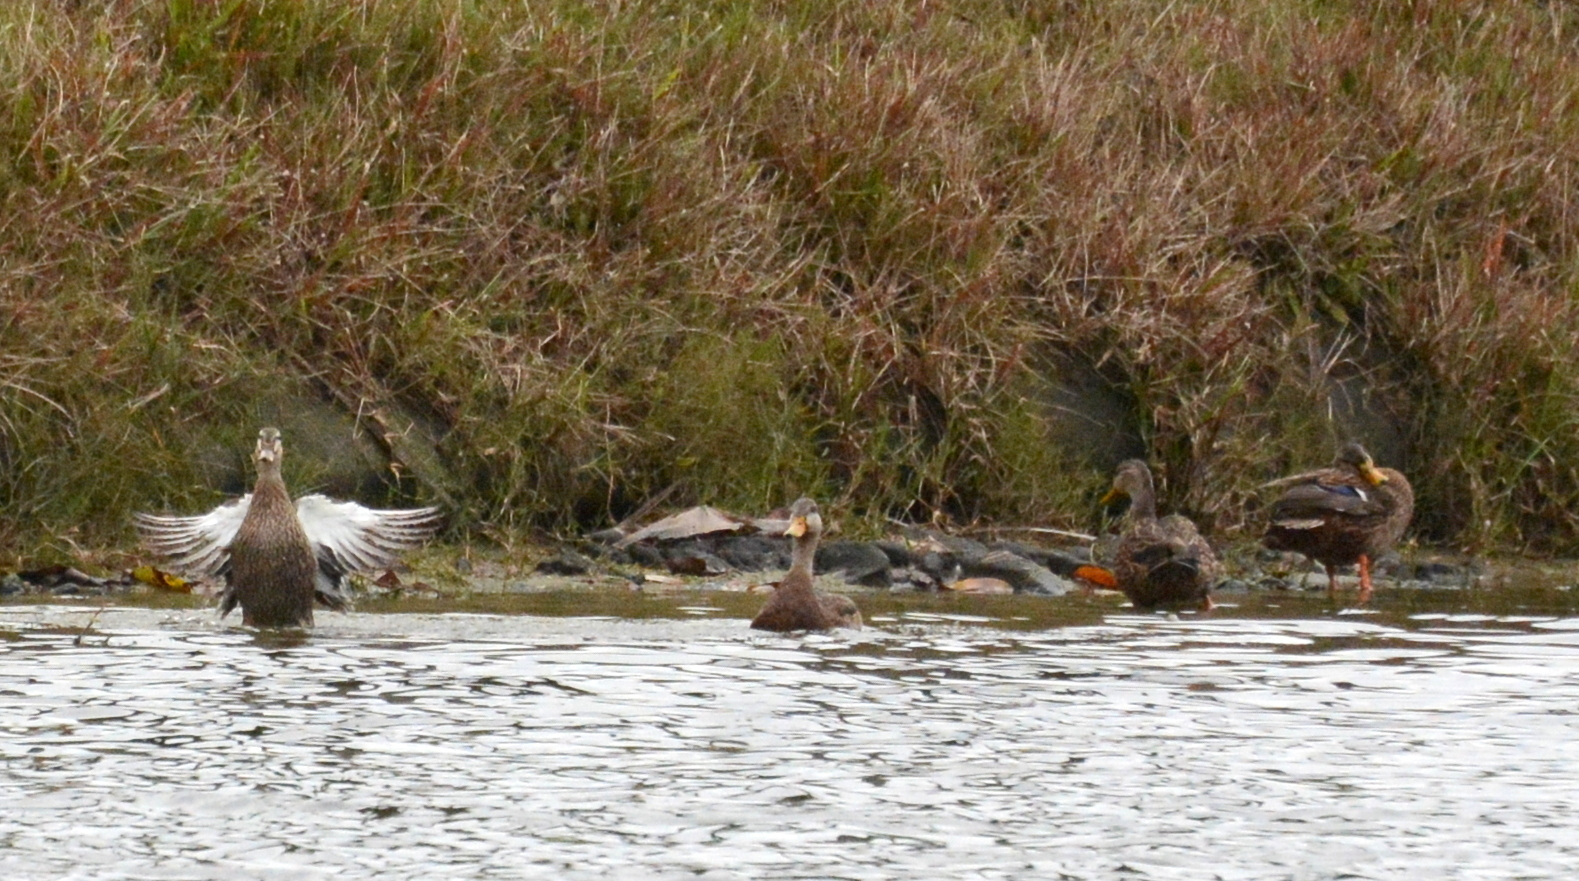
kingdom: Animalia
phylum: Chordata
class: Aves
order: Anseriformes
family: Anatidae
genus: Anas
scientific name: Anas
